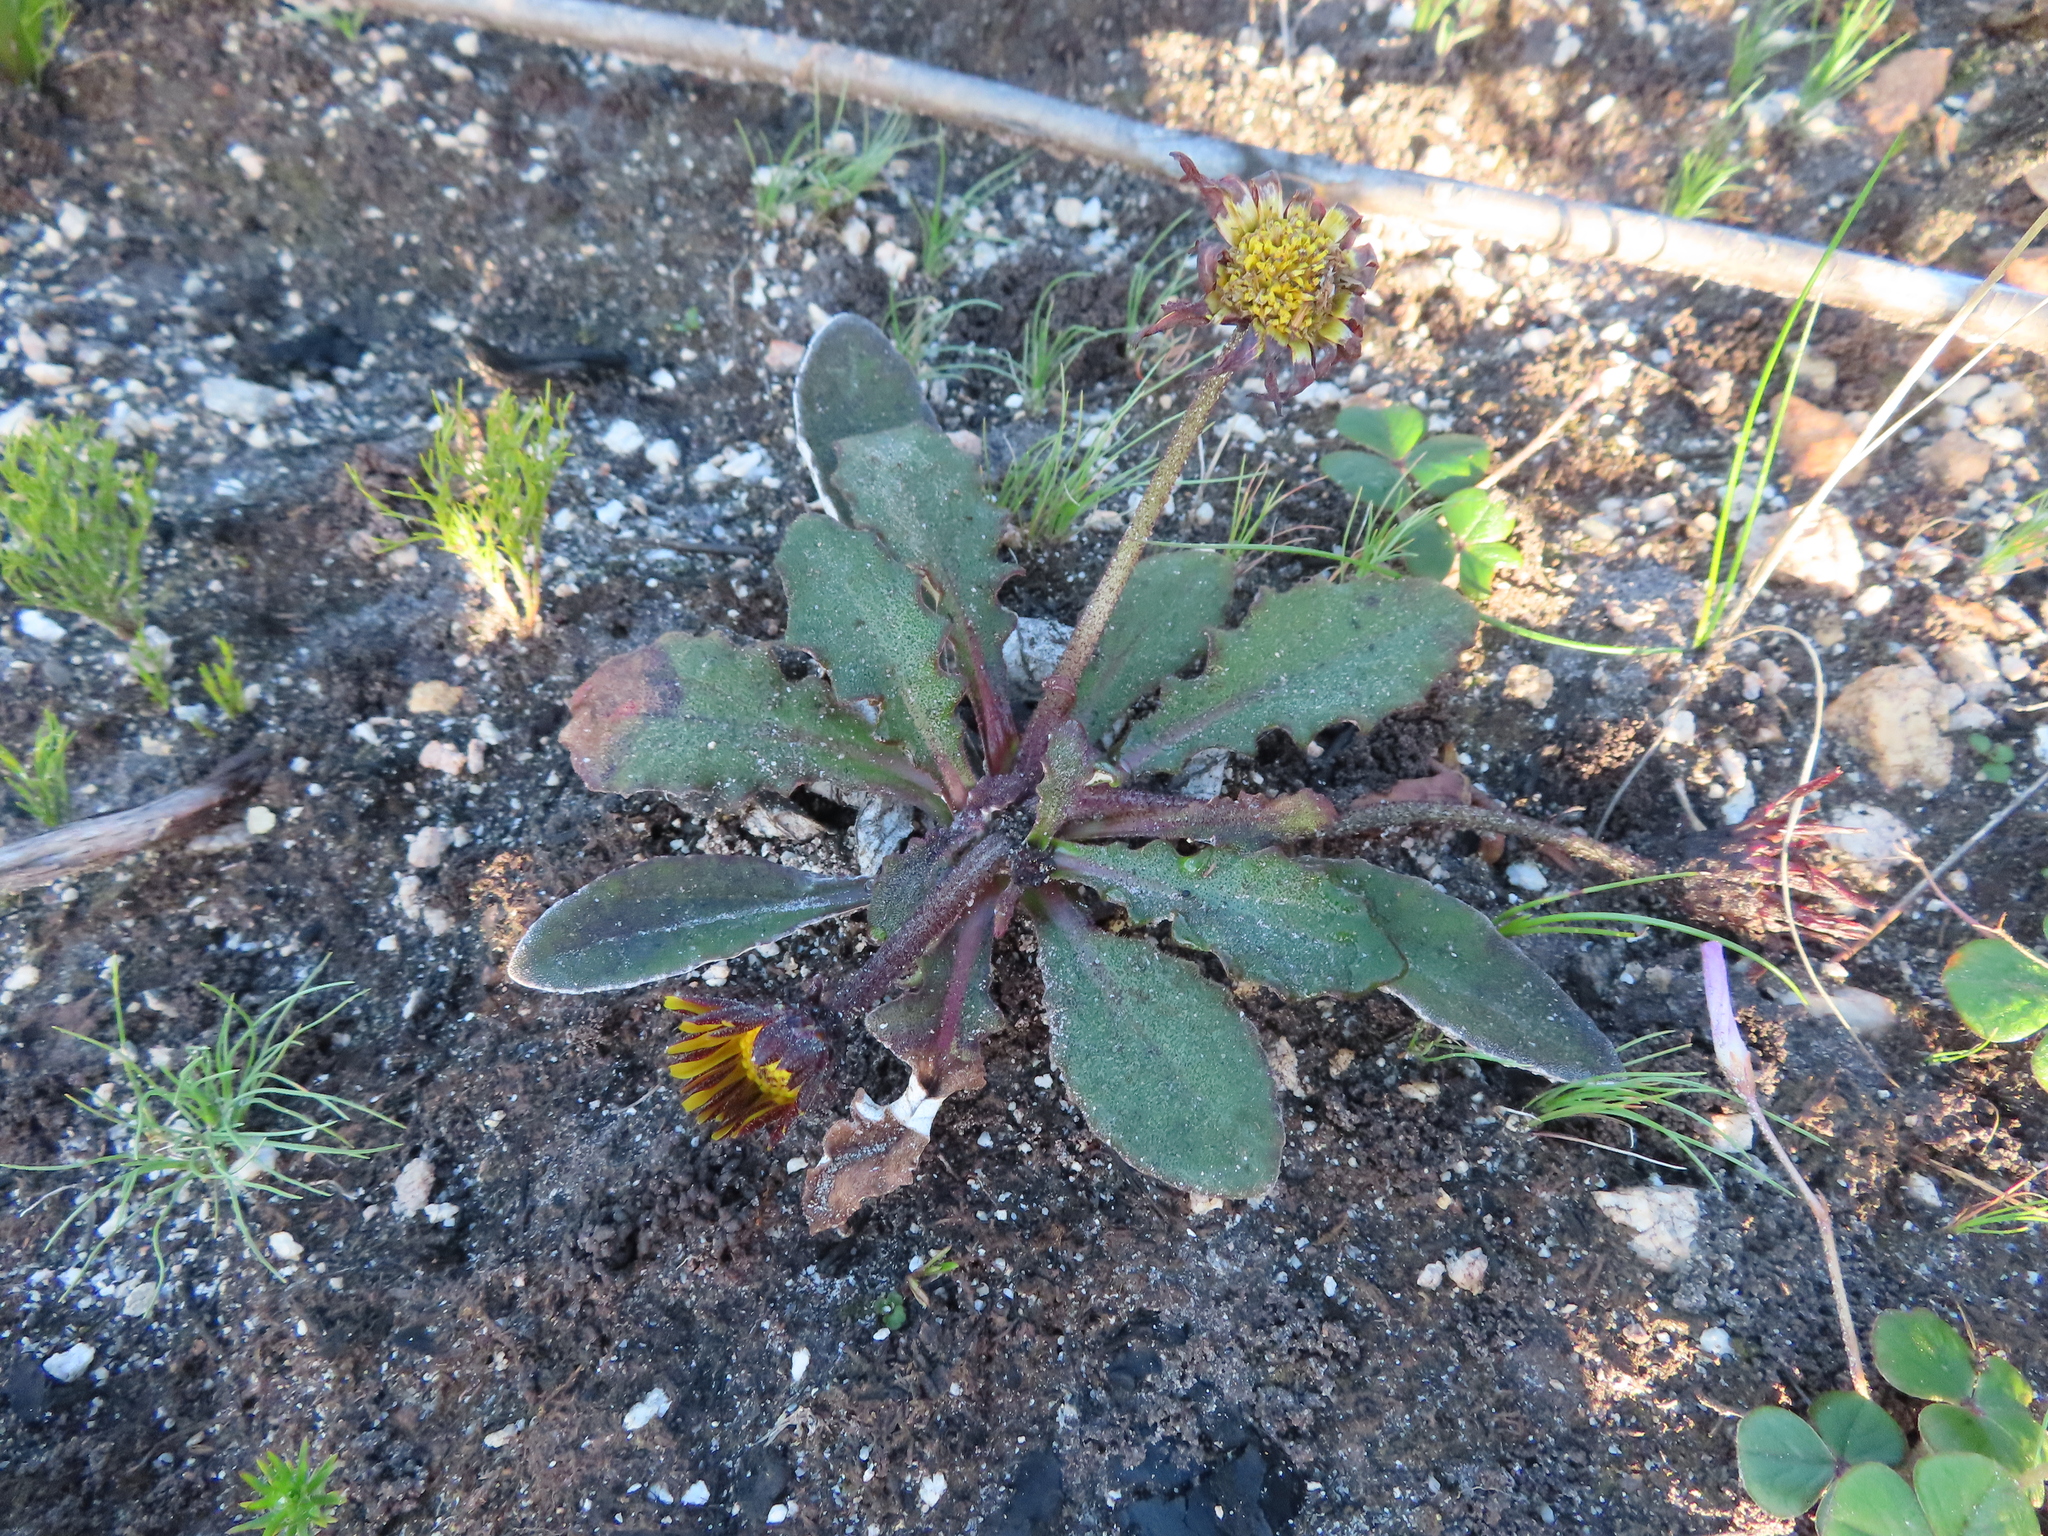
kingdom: Plantae
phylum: Tracheophyta
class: Magnoliopsida
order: Asterales
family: Asteraceae
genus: Haplocarpha
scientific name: Haplocarpha lanata
